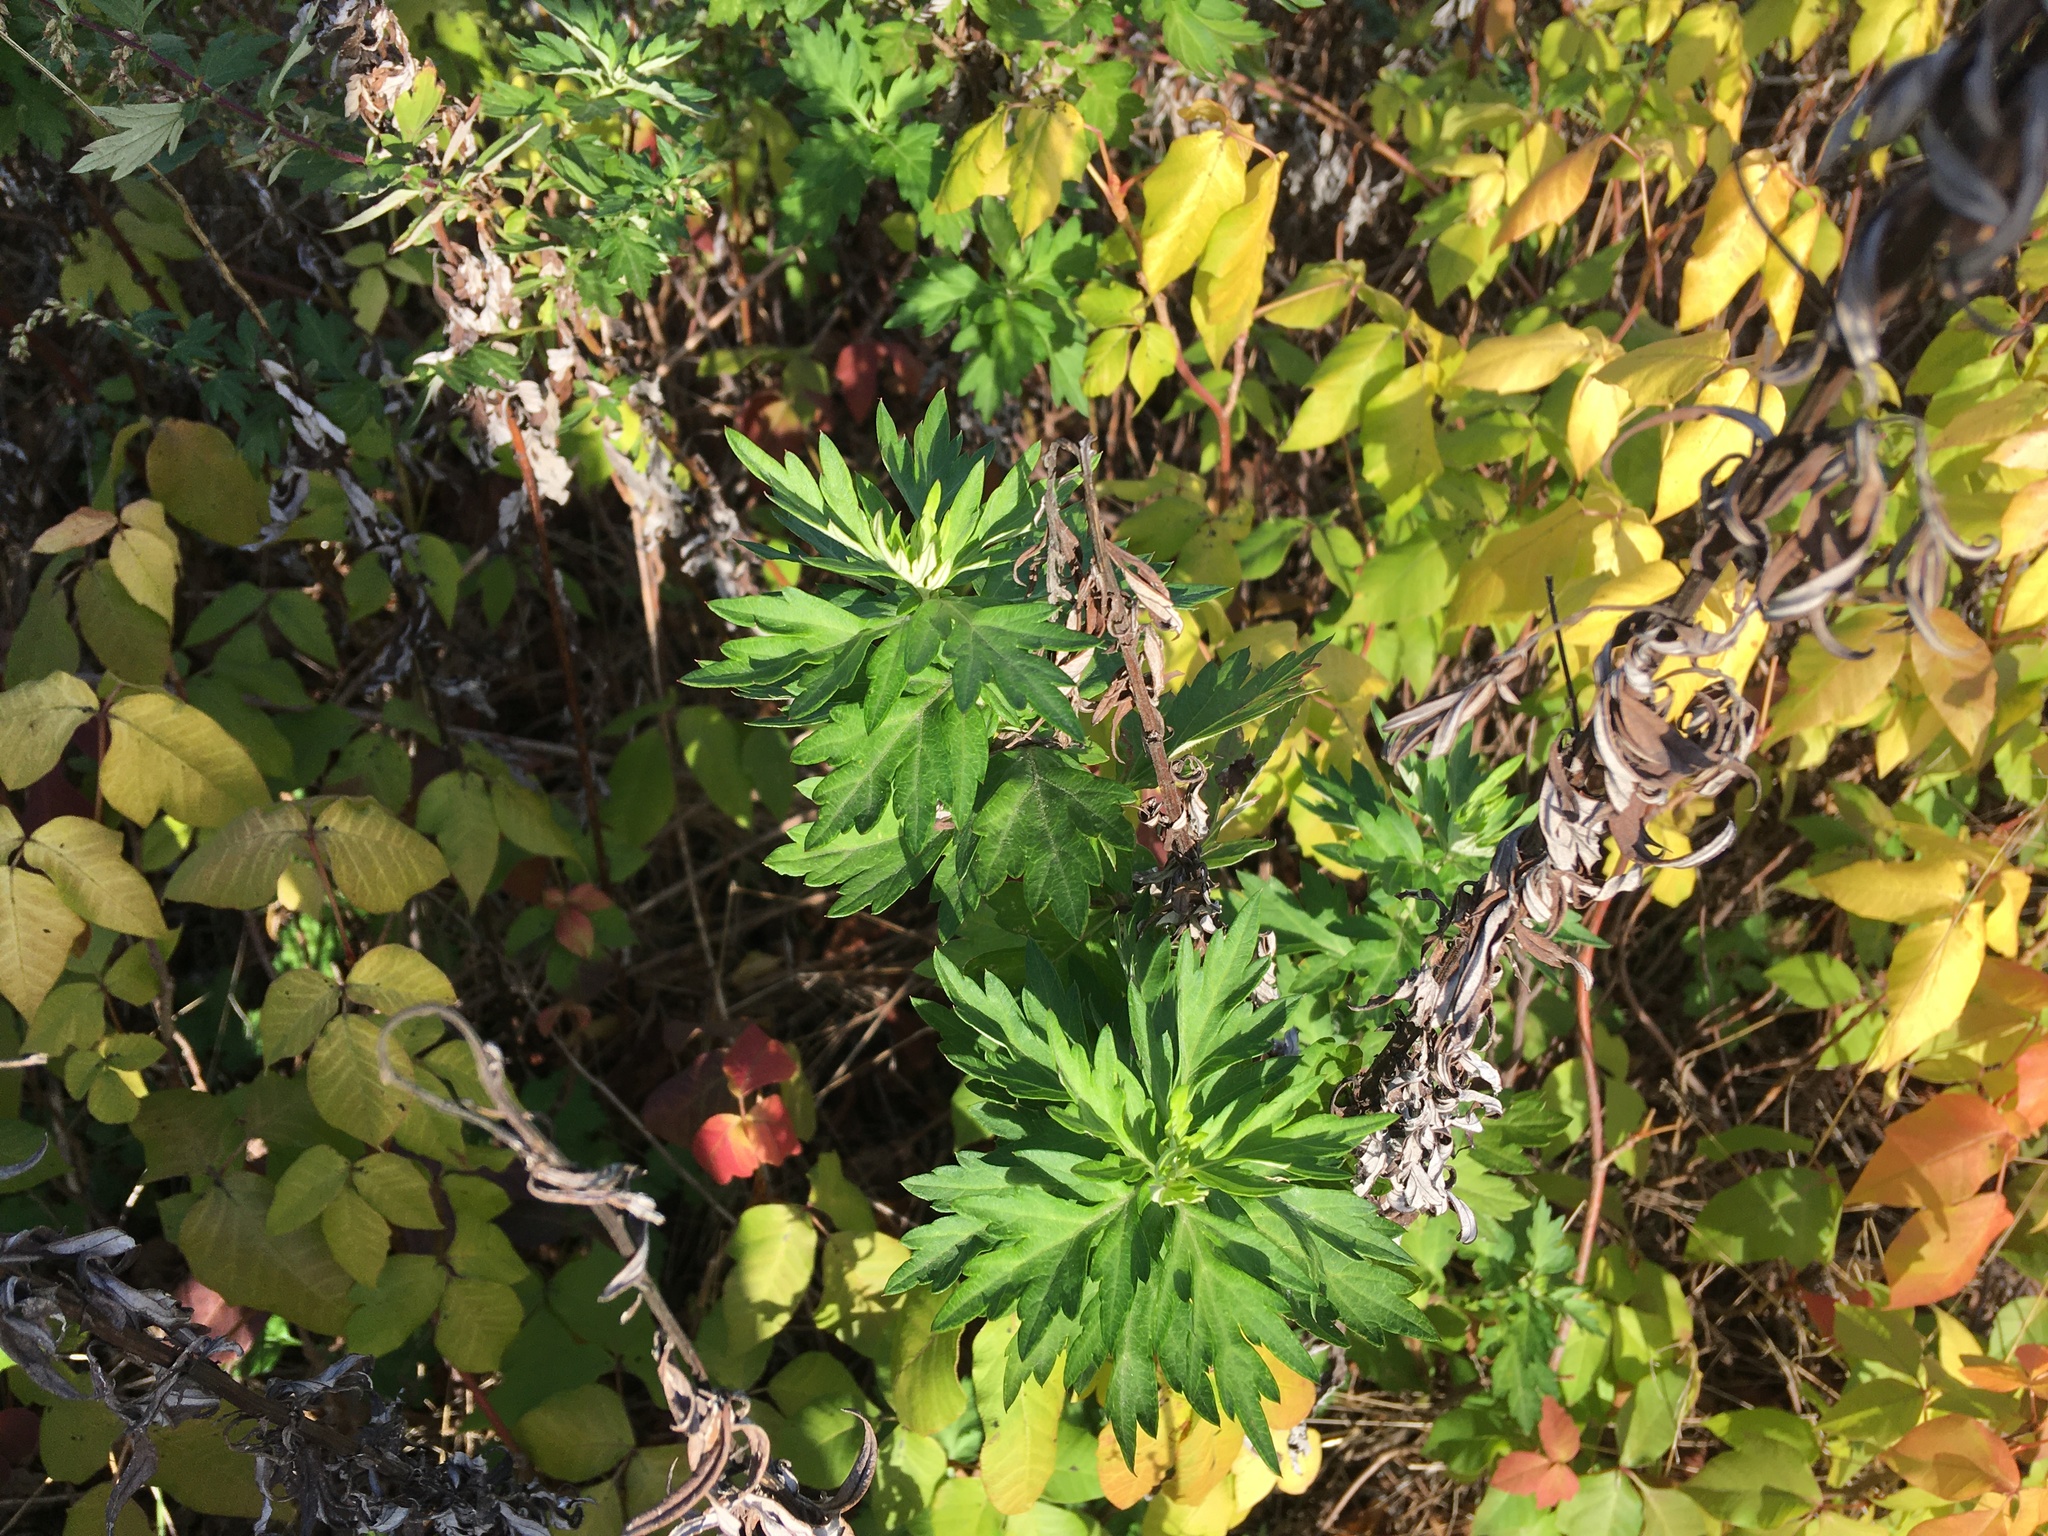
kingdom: Plantae
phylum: Tracheophyta
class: Magnoliopsida
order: Asterales
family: Asteraceae
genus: Artemisia
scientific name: Artemisia vulgaris
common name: Mugwort
